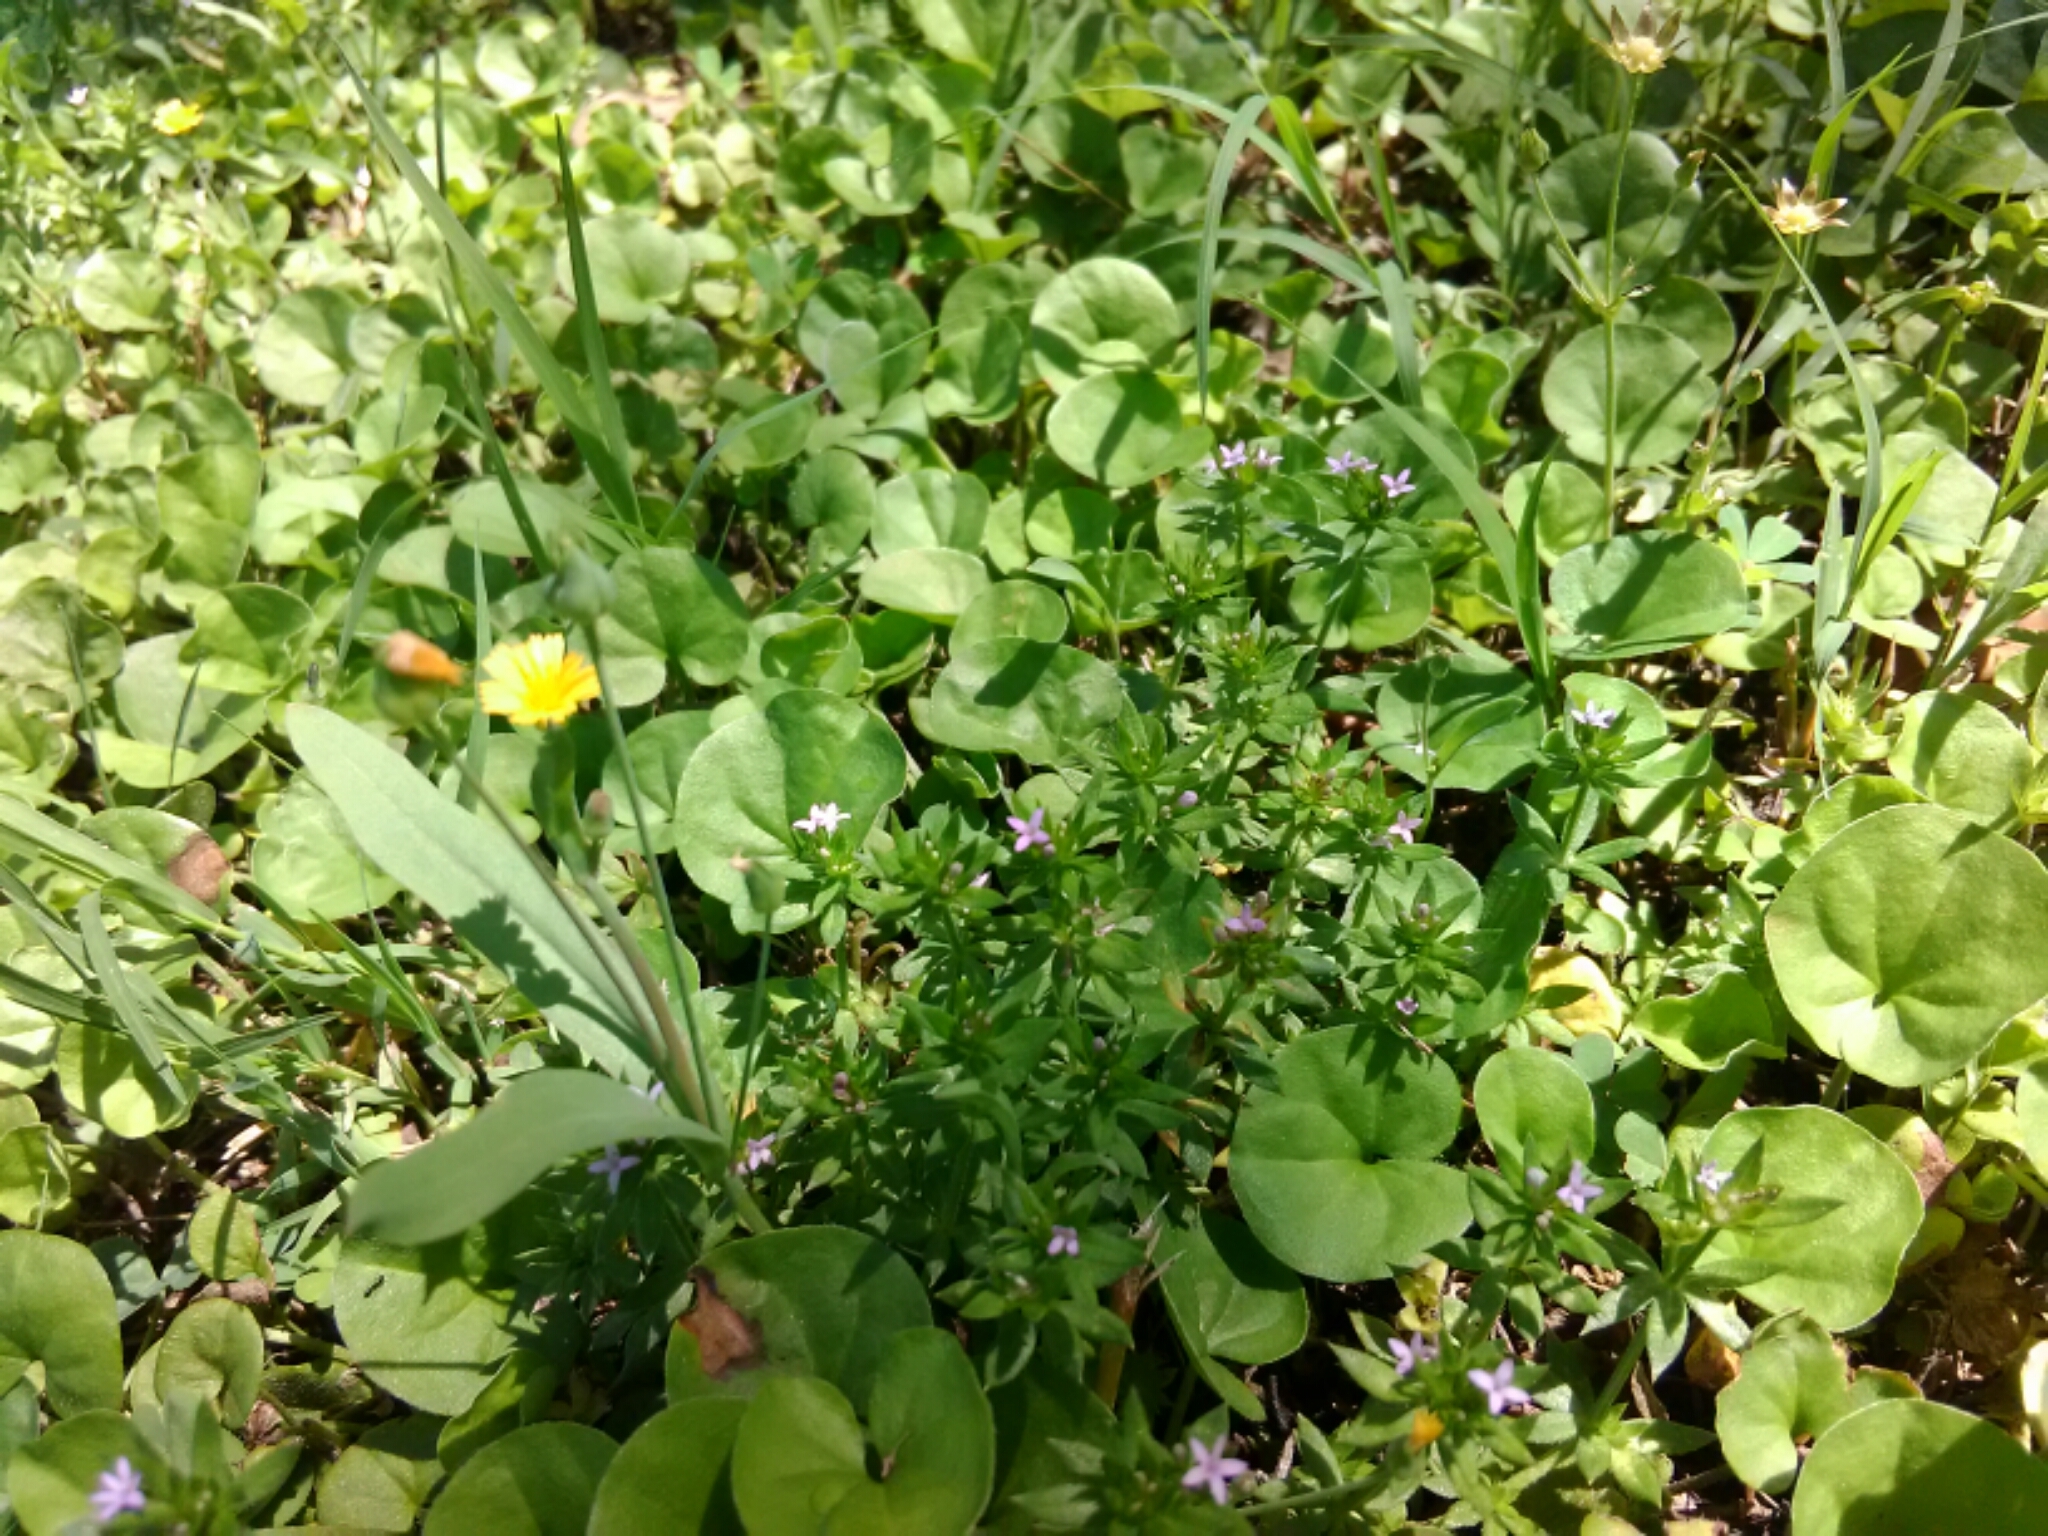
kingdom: Plantae
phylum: Tracheophyta
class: Magnoliopsida
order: Gentianales
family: Rubiaceae
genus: Sherardia
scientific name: Sherardia arvensis
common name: Field madder
